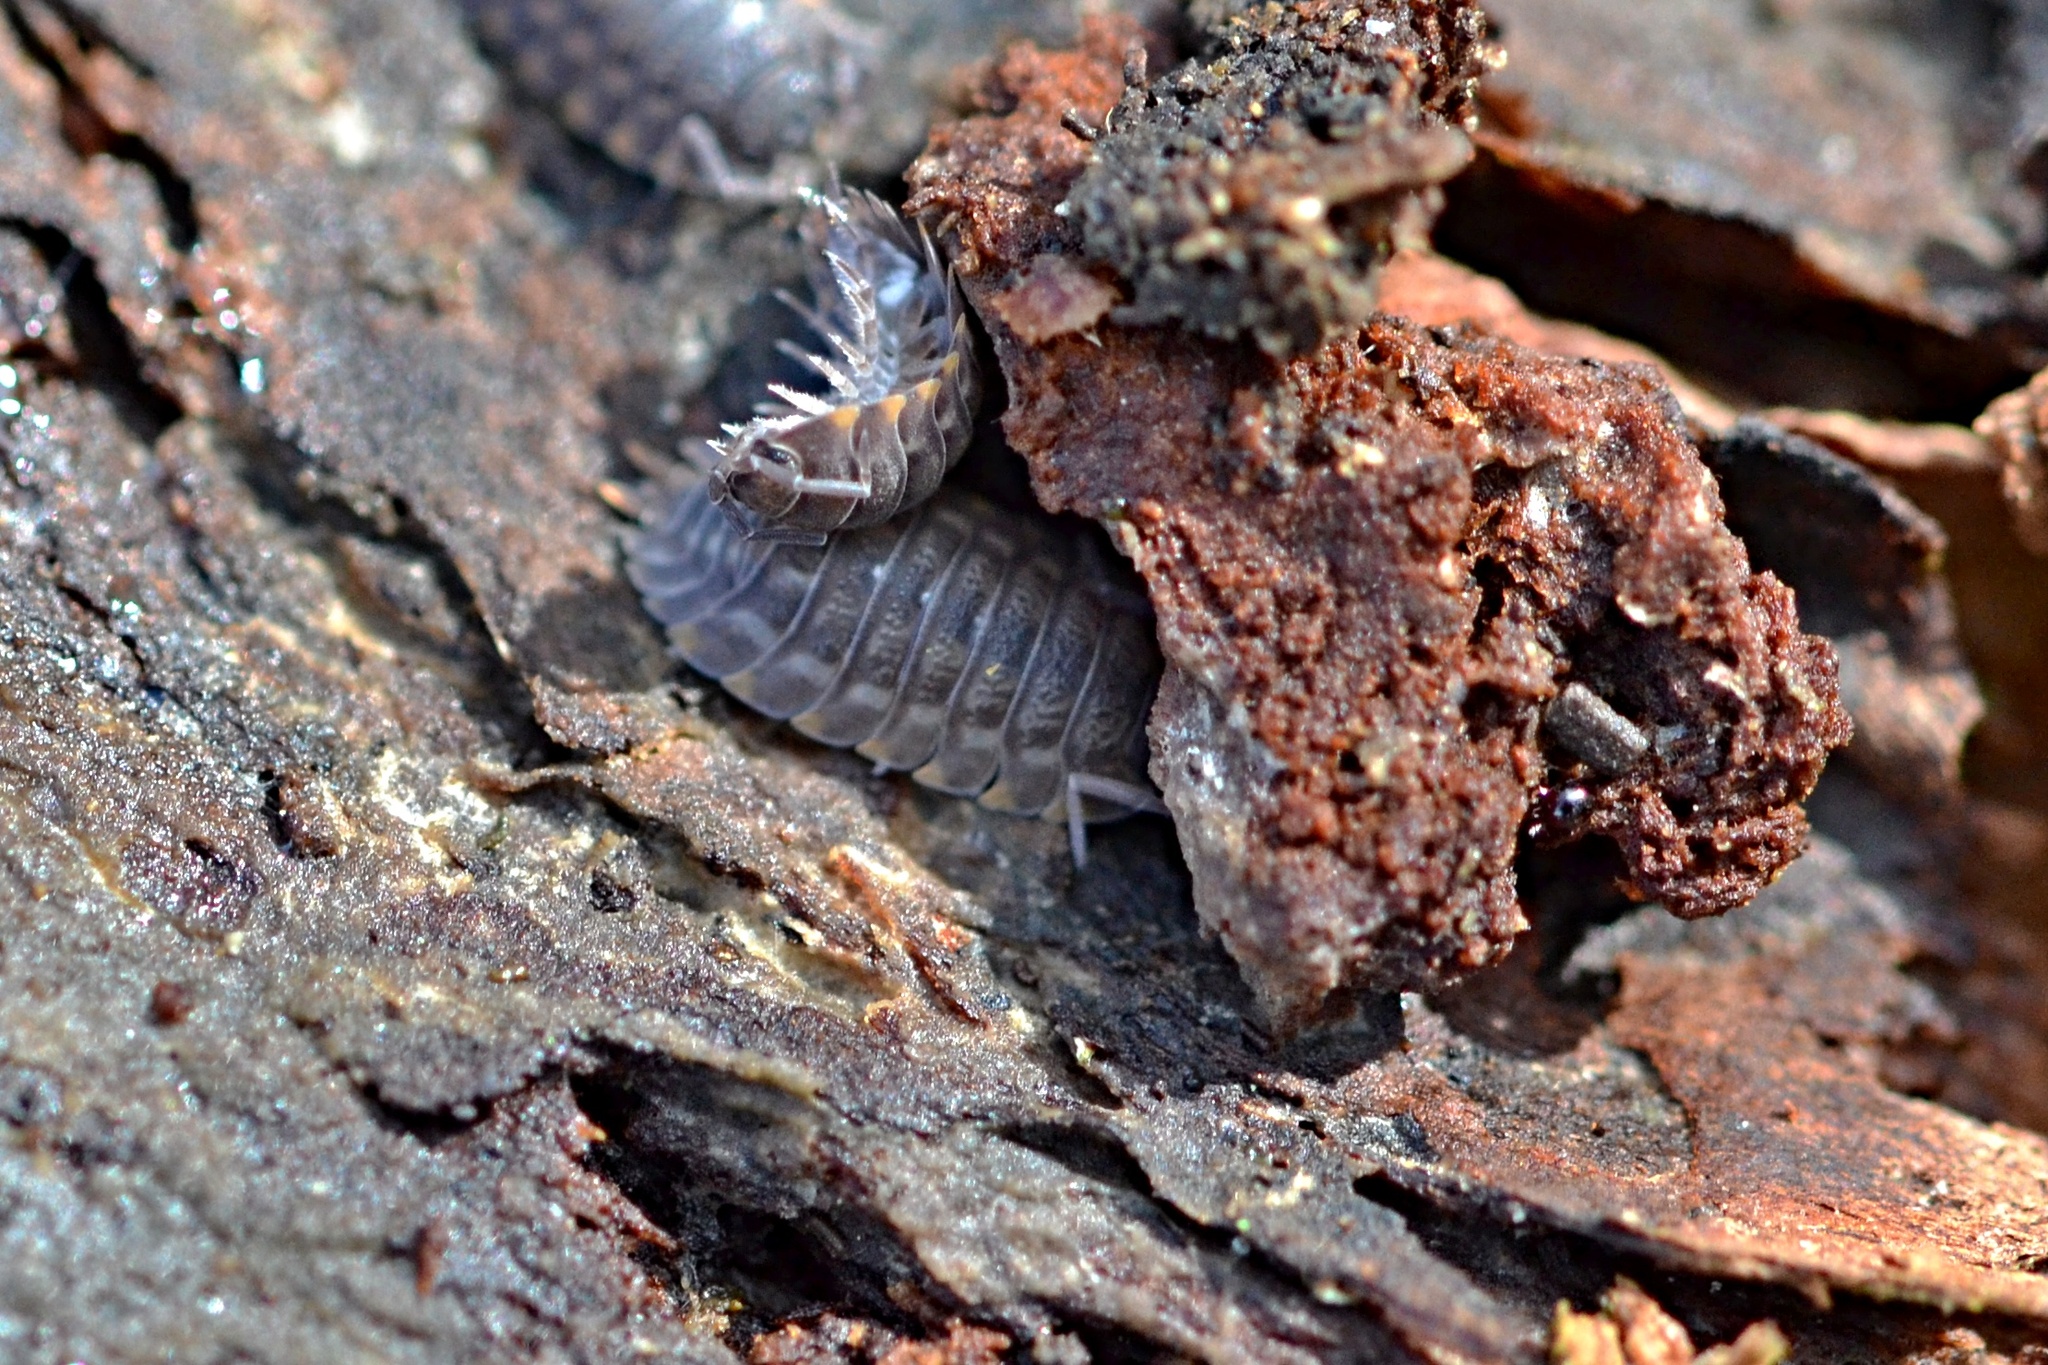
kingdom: Animalia
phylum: Arthropoda
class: Malacostraca
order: Isopoda
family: Trachelipodidae
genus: Trachelipus
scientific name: Trachelipus ratzeburgii
